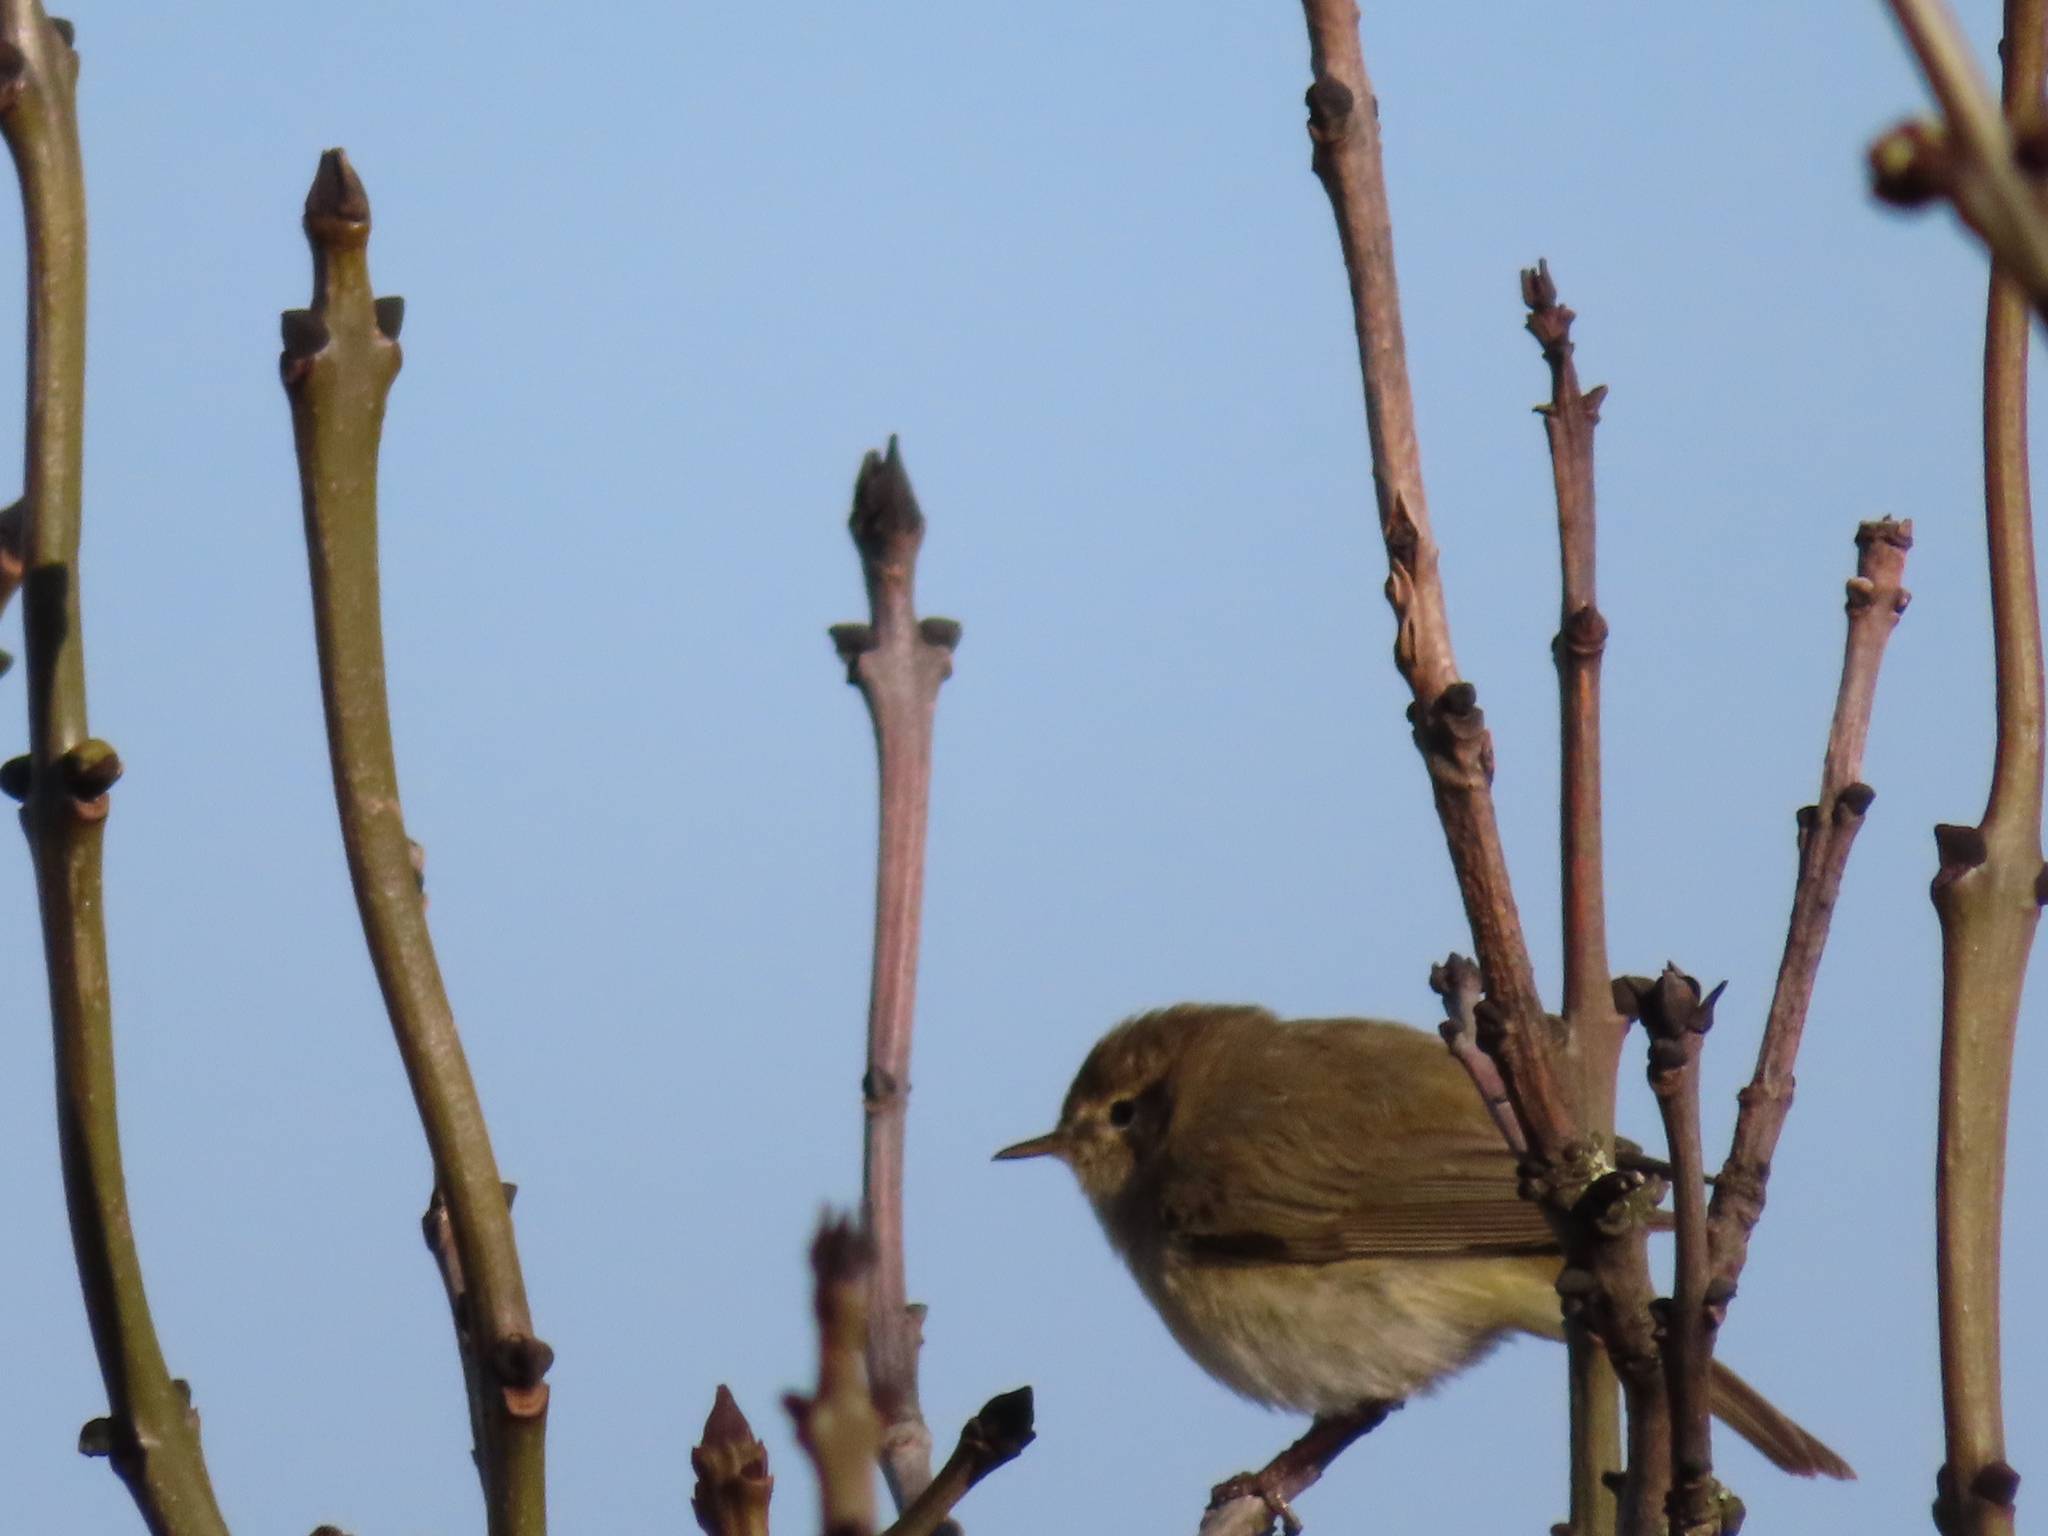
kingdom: Animalia
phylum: Chordata
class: Aves
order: Passeriformes
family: Phylloscopidae
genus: Phylloscopus
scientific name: Phylloscopus collybita
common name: Common chiffchaff
